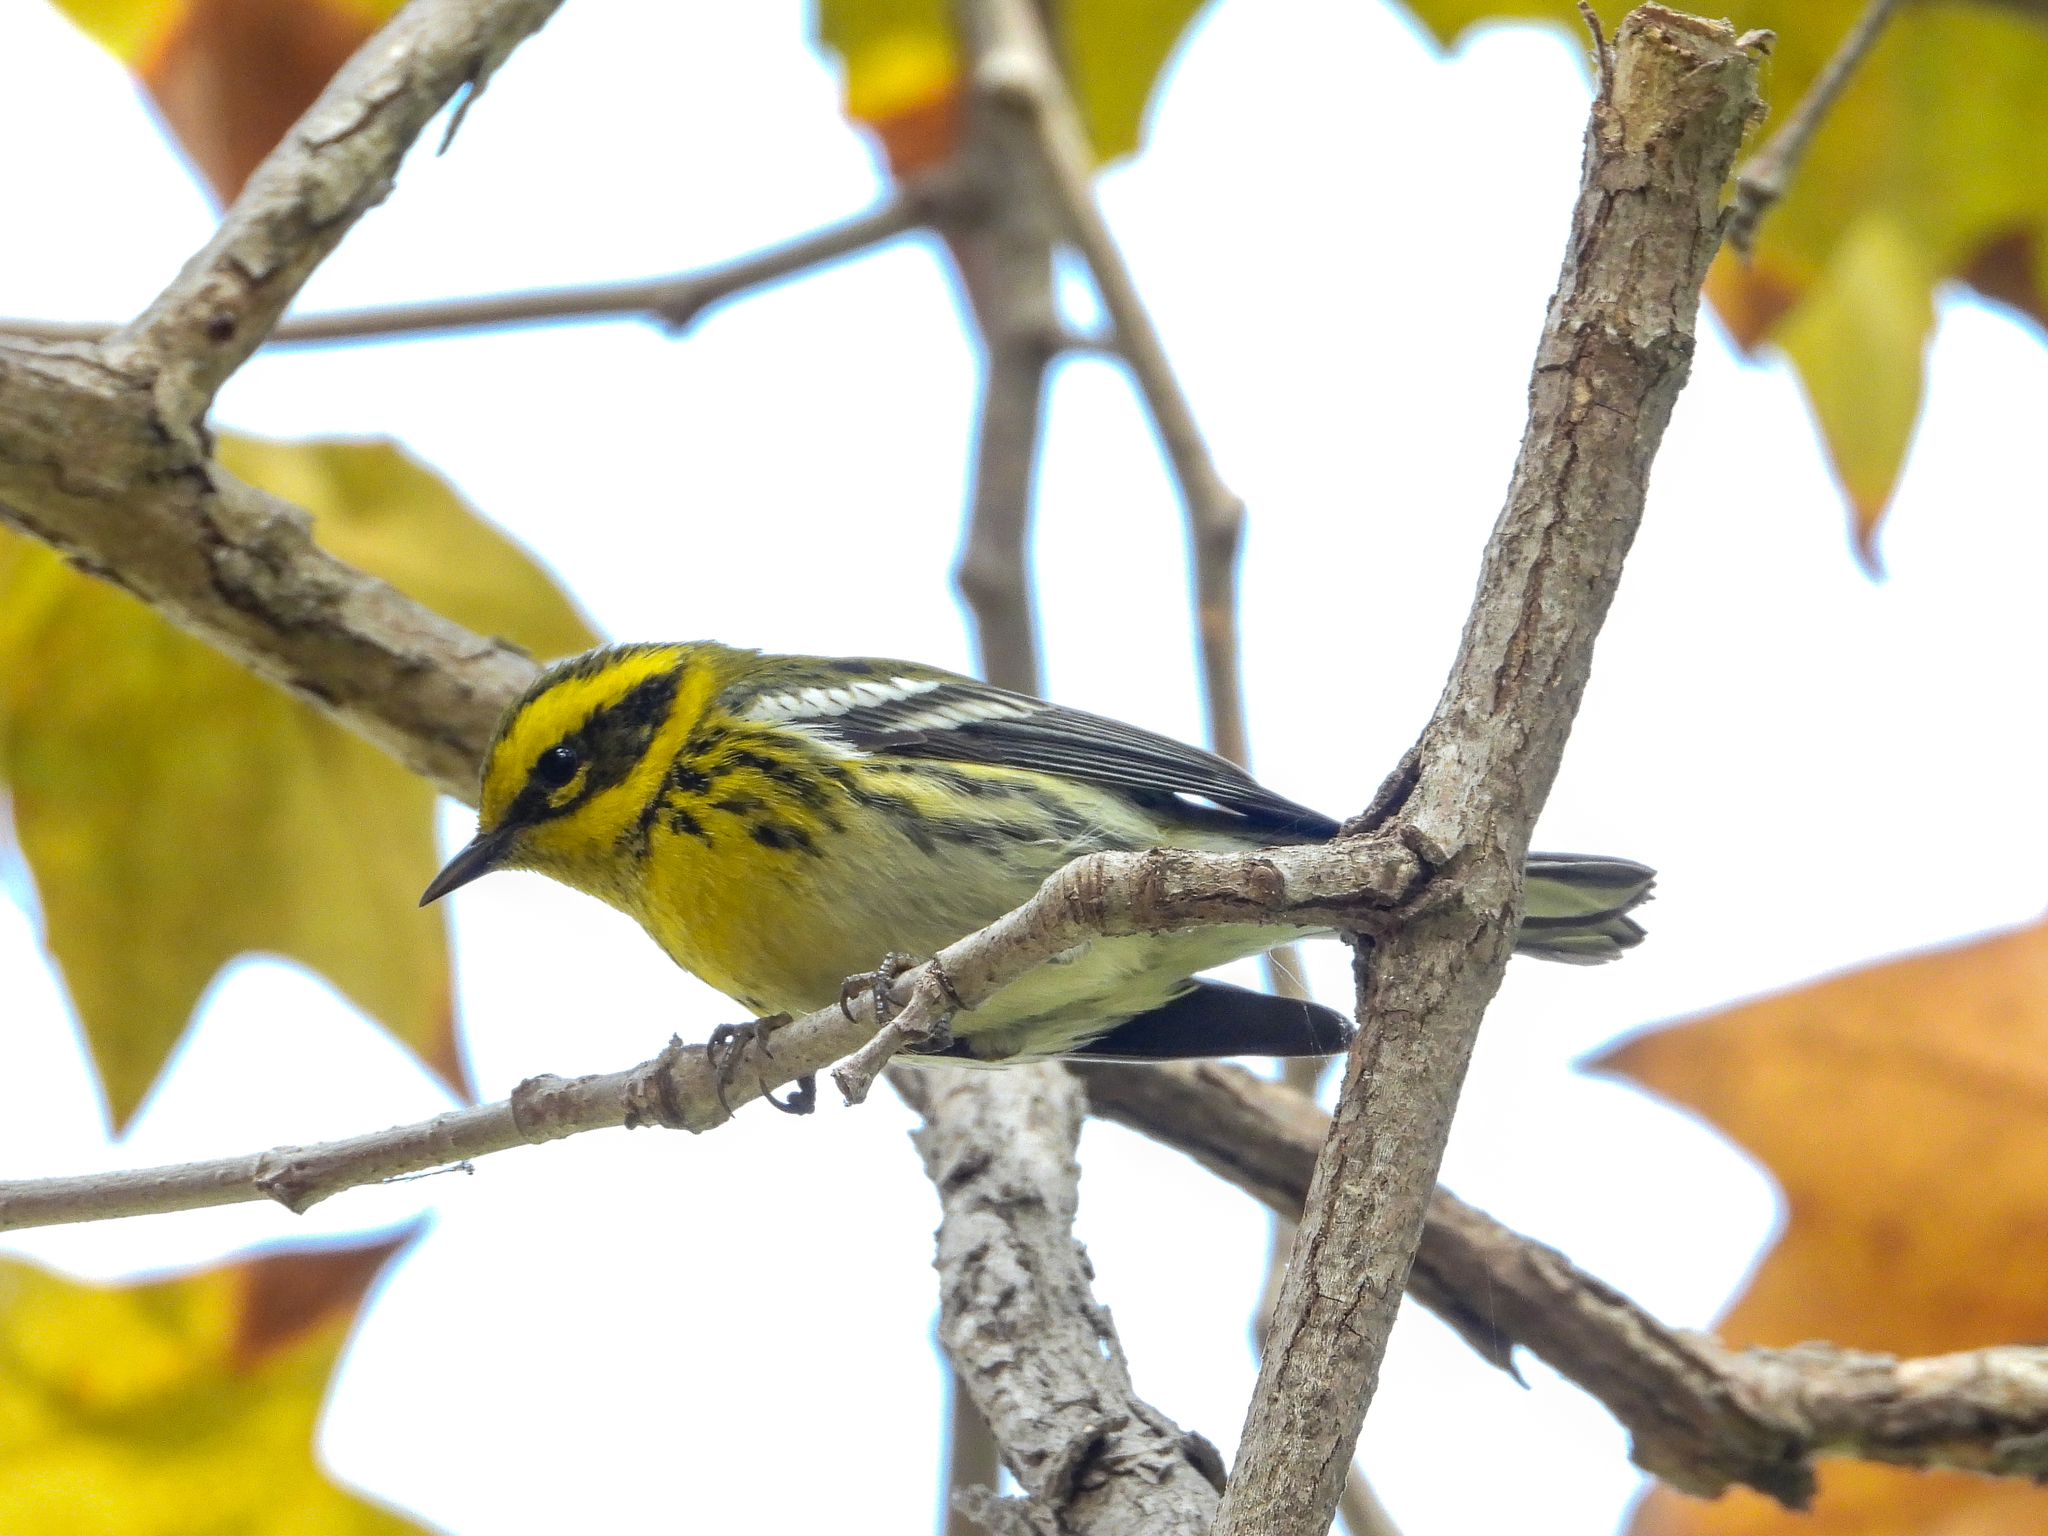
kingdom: Animalia
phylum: Chordata
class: Aves
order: Passeriformes
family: Parulidae
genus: Setophaga
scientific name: Setophaga townsendi
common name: Townsend's warbler
